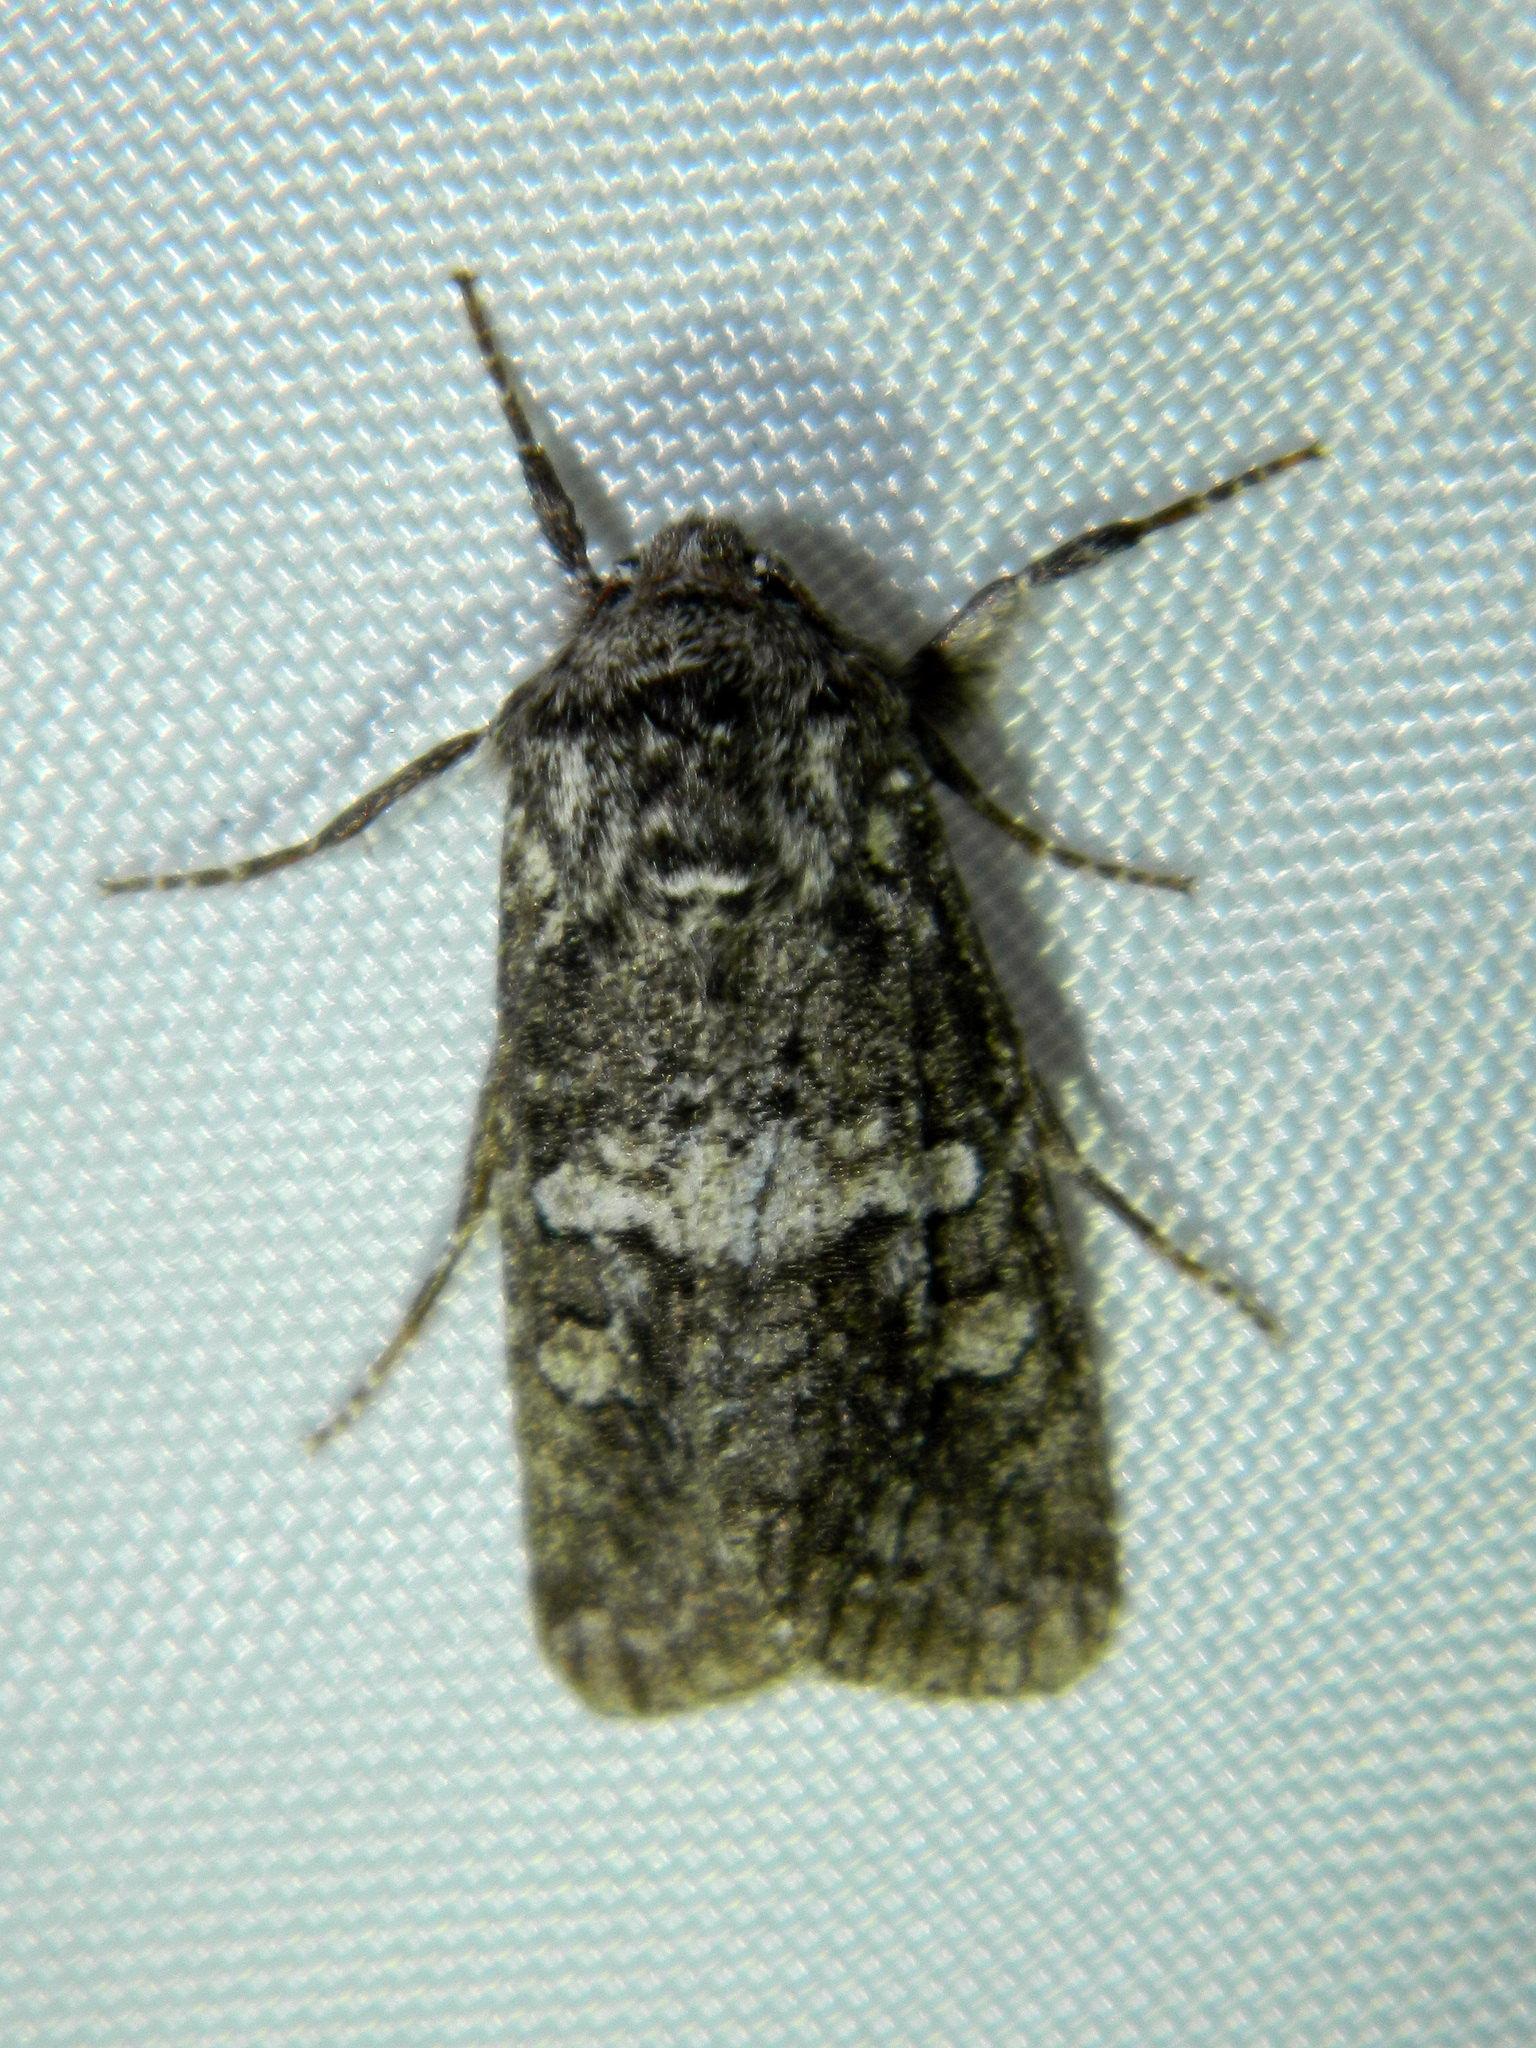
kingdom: Animalia
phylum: Arthropoda
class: Insecta
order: Lepidoptera
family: Noctuidae
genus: Egira
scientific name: Egira dolosa
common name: Lined black aspen cat.
